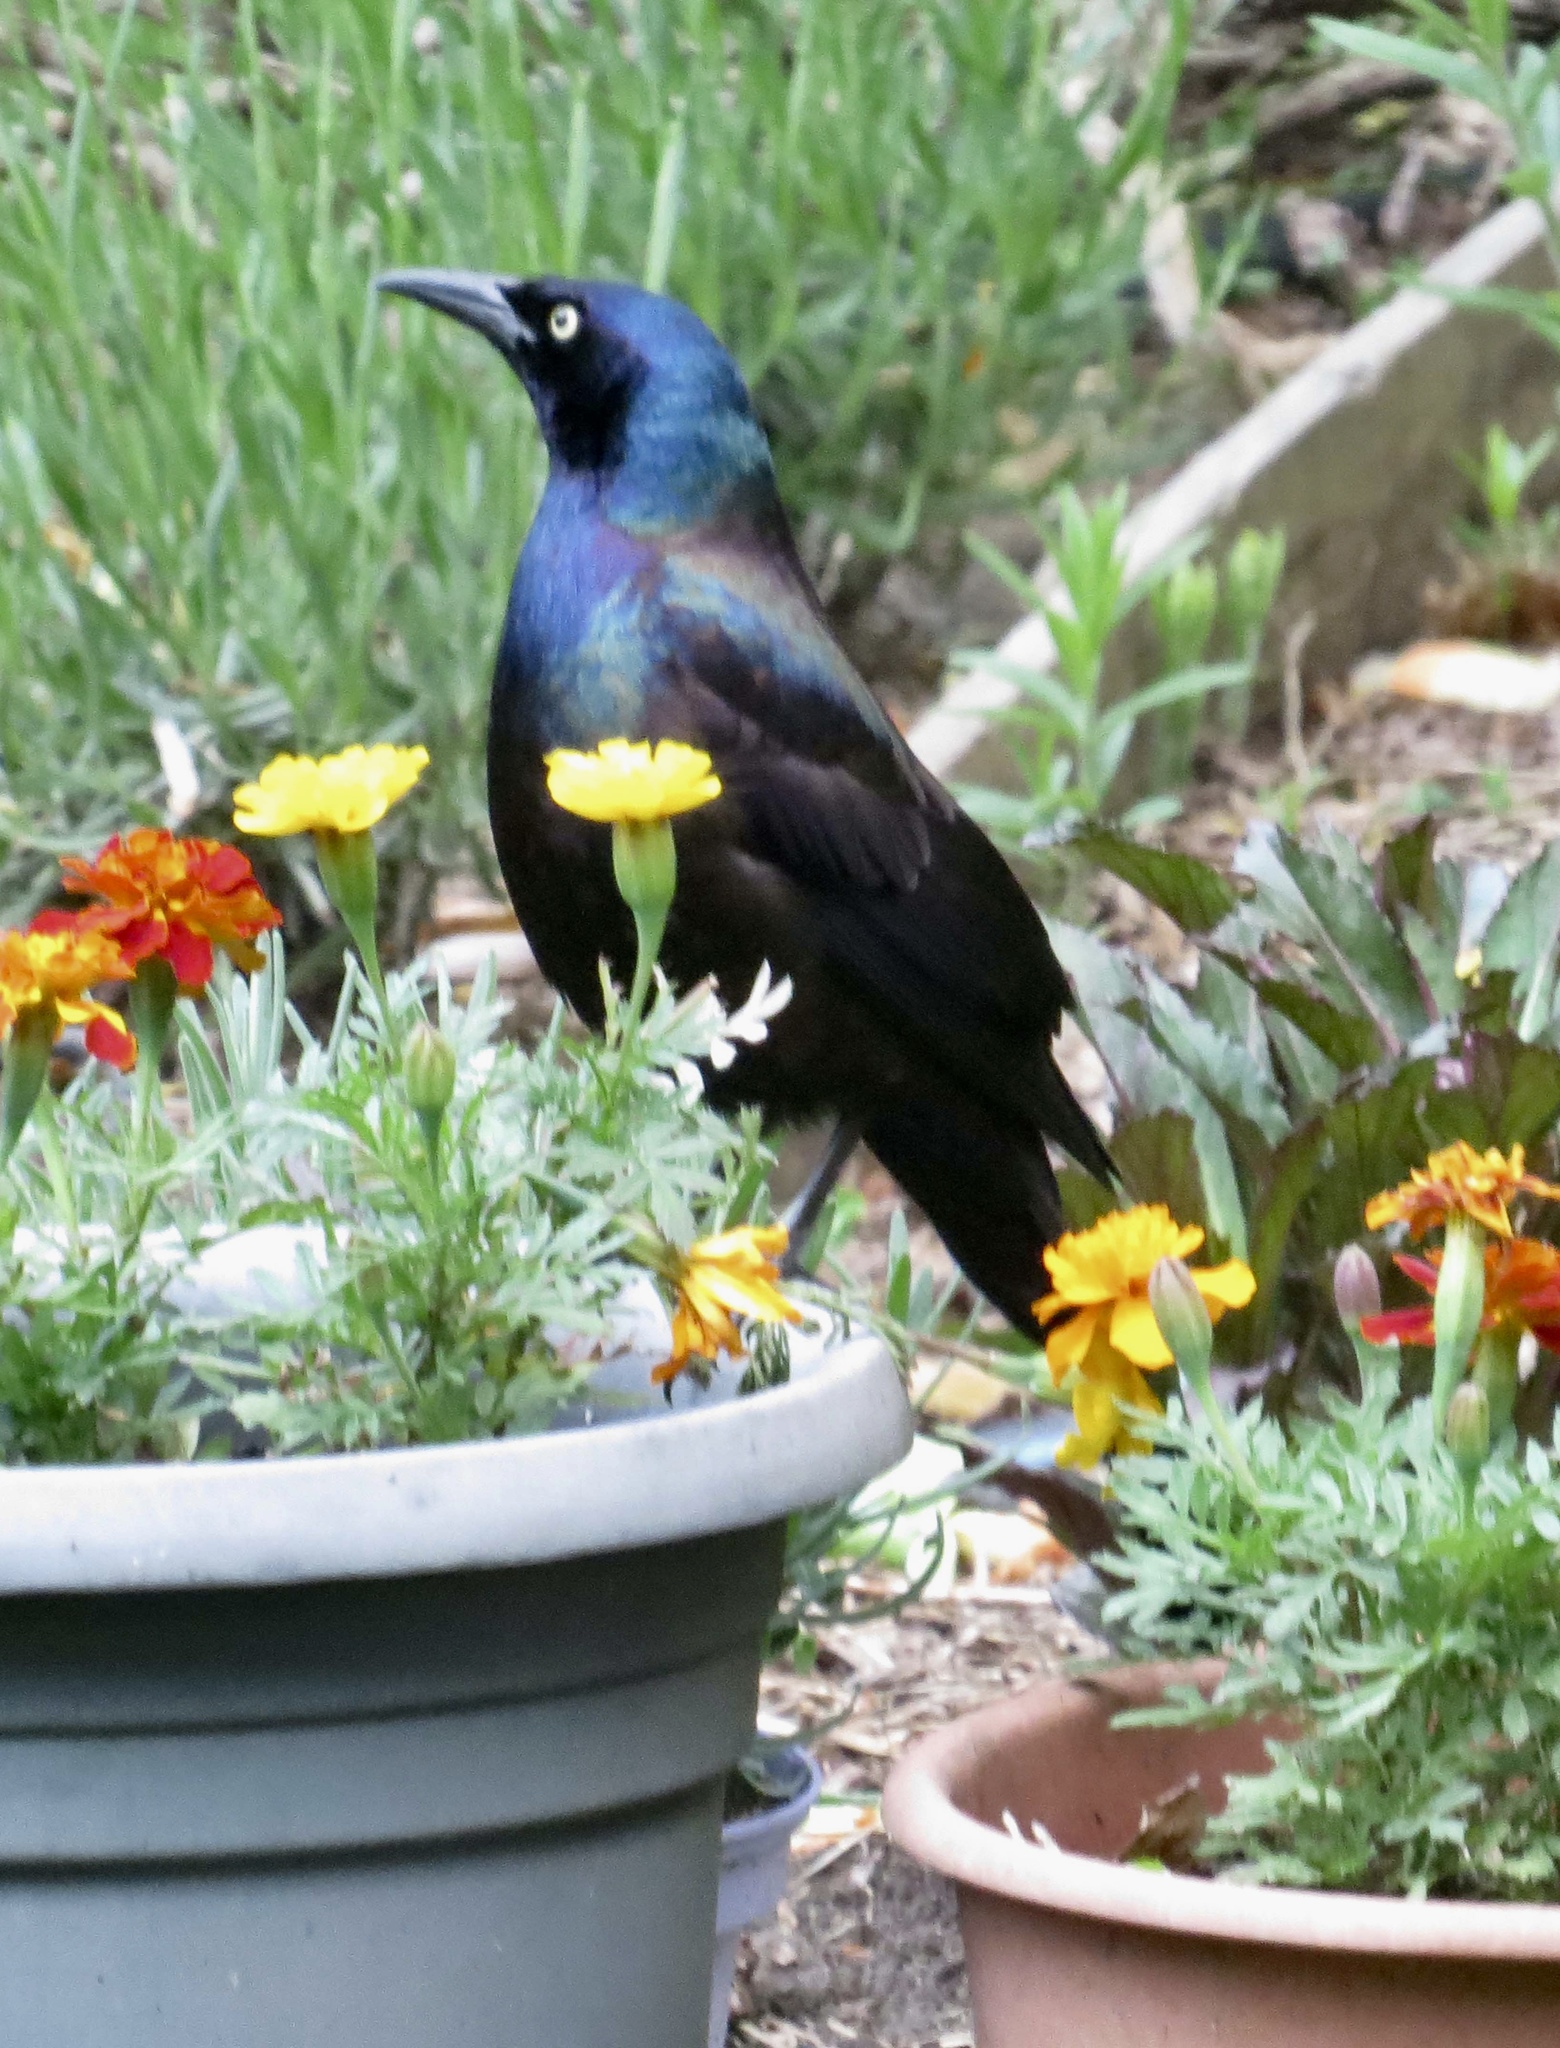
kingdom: Animalia
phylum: Chordata
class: Aves
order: Passeriformes
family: Icteridae
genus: Quiscalus
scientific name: Quiscalus quiscula
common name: Common grackle
